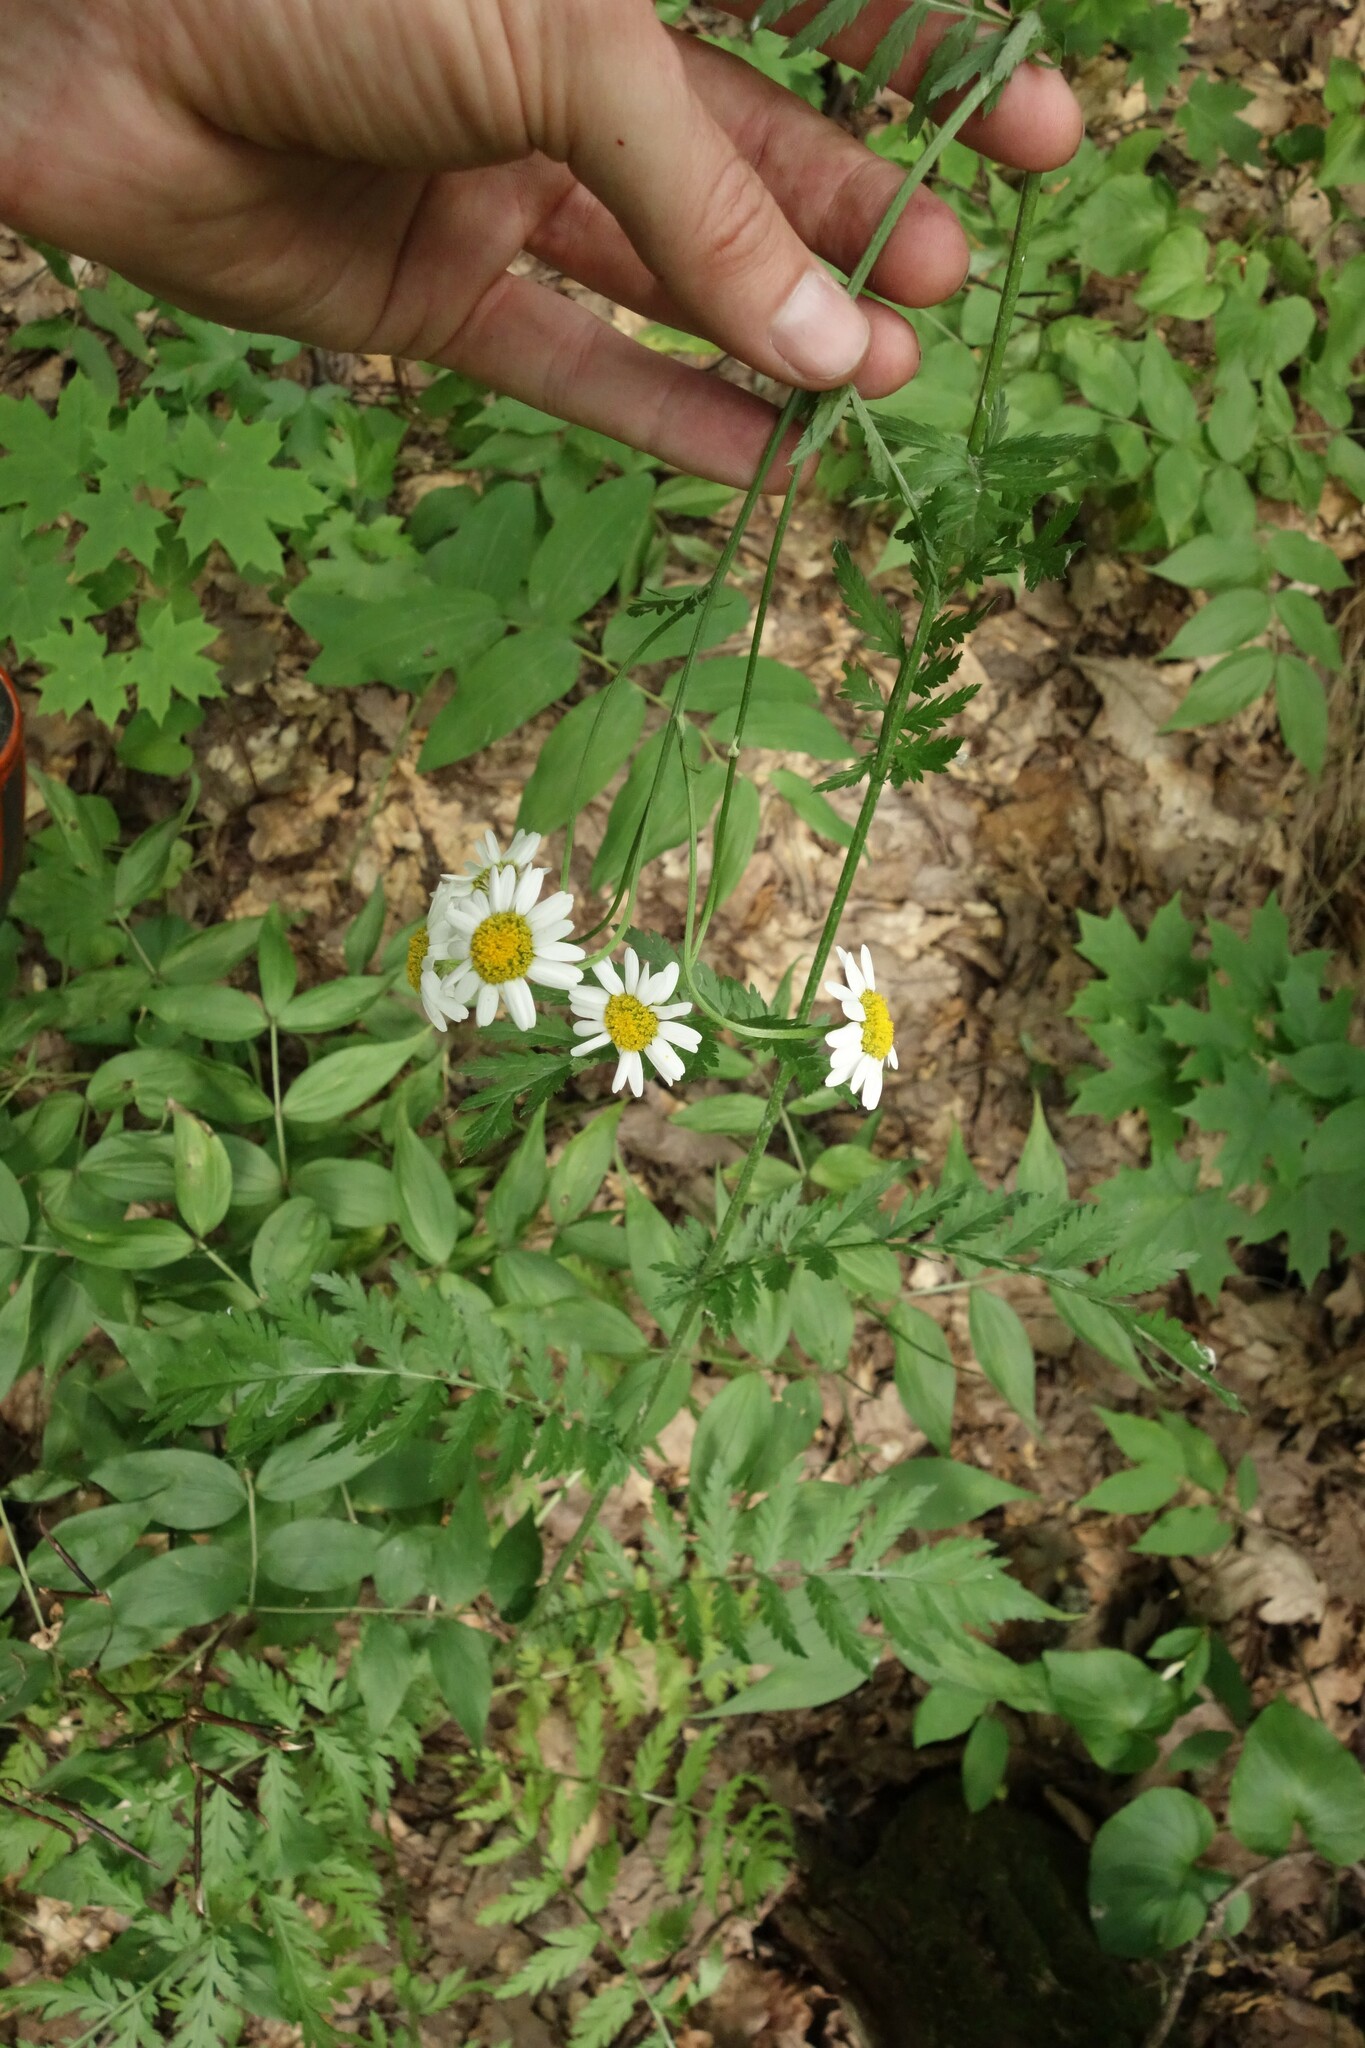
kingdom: Plantae
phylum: Tracheophyta
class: Magnoliopsida
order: Asterales
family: Asteraceae
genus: Tanacetum
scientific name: Tanacetum corymbosum
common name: Scentless feverfew
